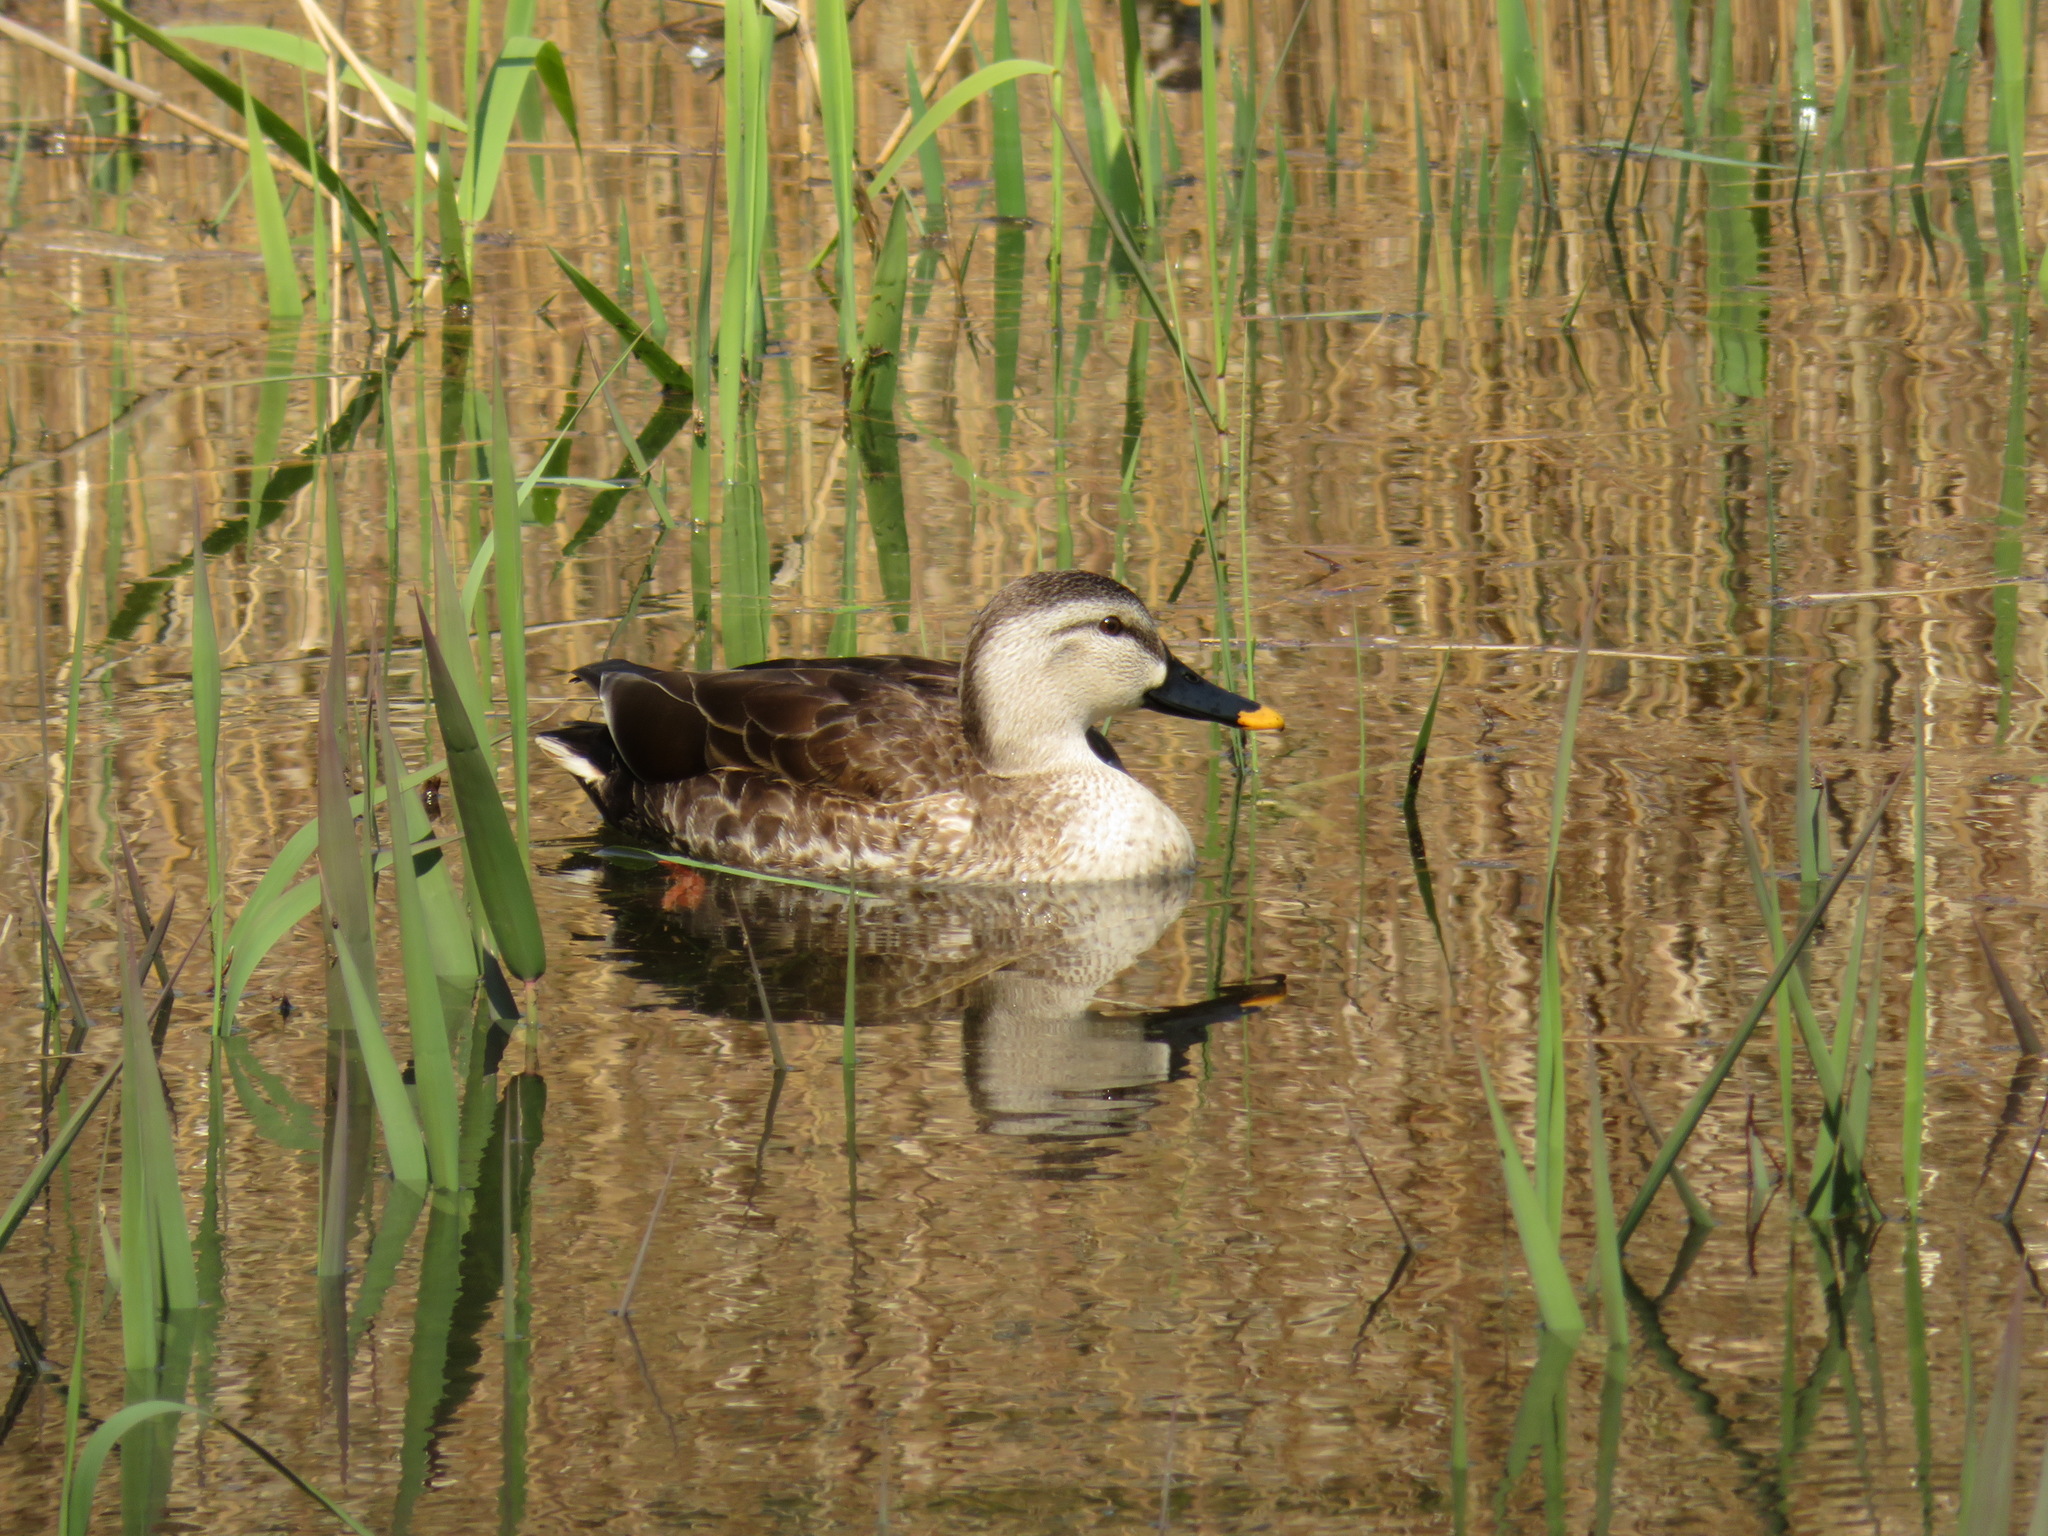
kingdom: Animalia
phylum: Chordata
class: Aves
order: Anseriformes
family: Anatidae
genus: Anas
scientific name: Anas zonorhyncha
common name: Eastern spot-billed duck
